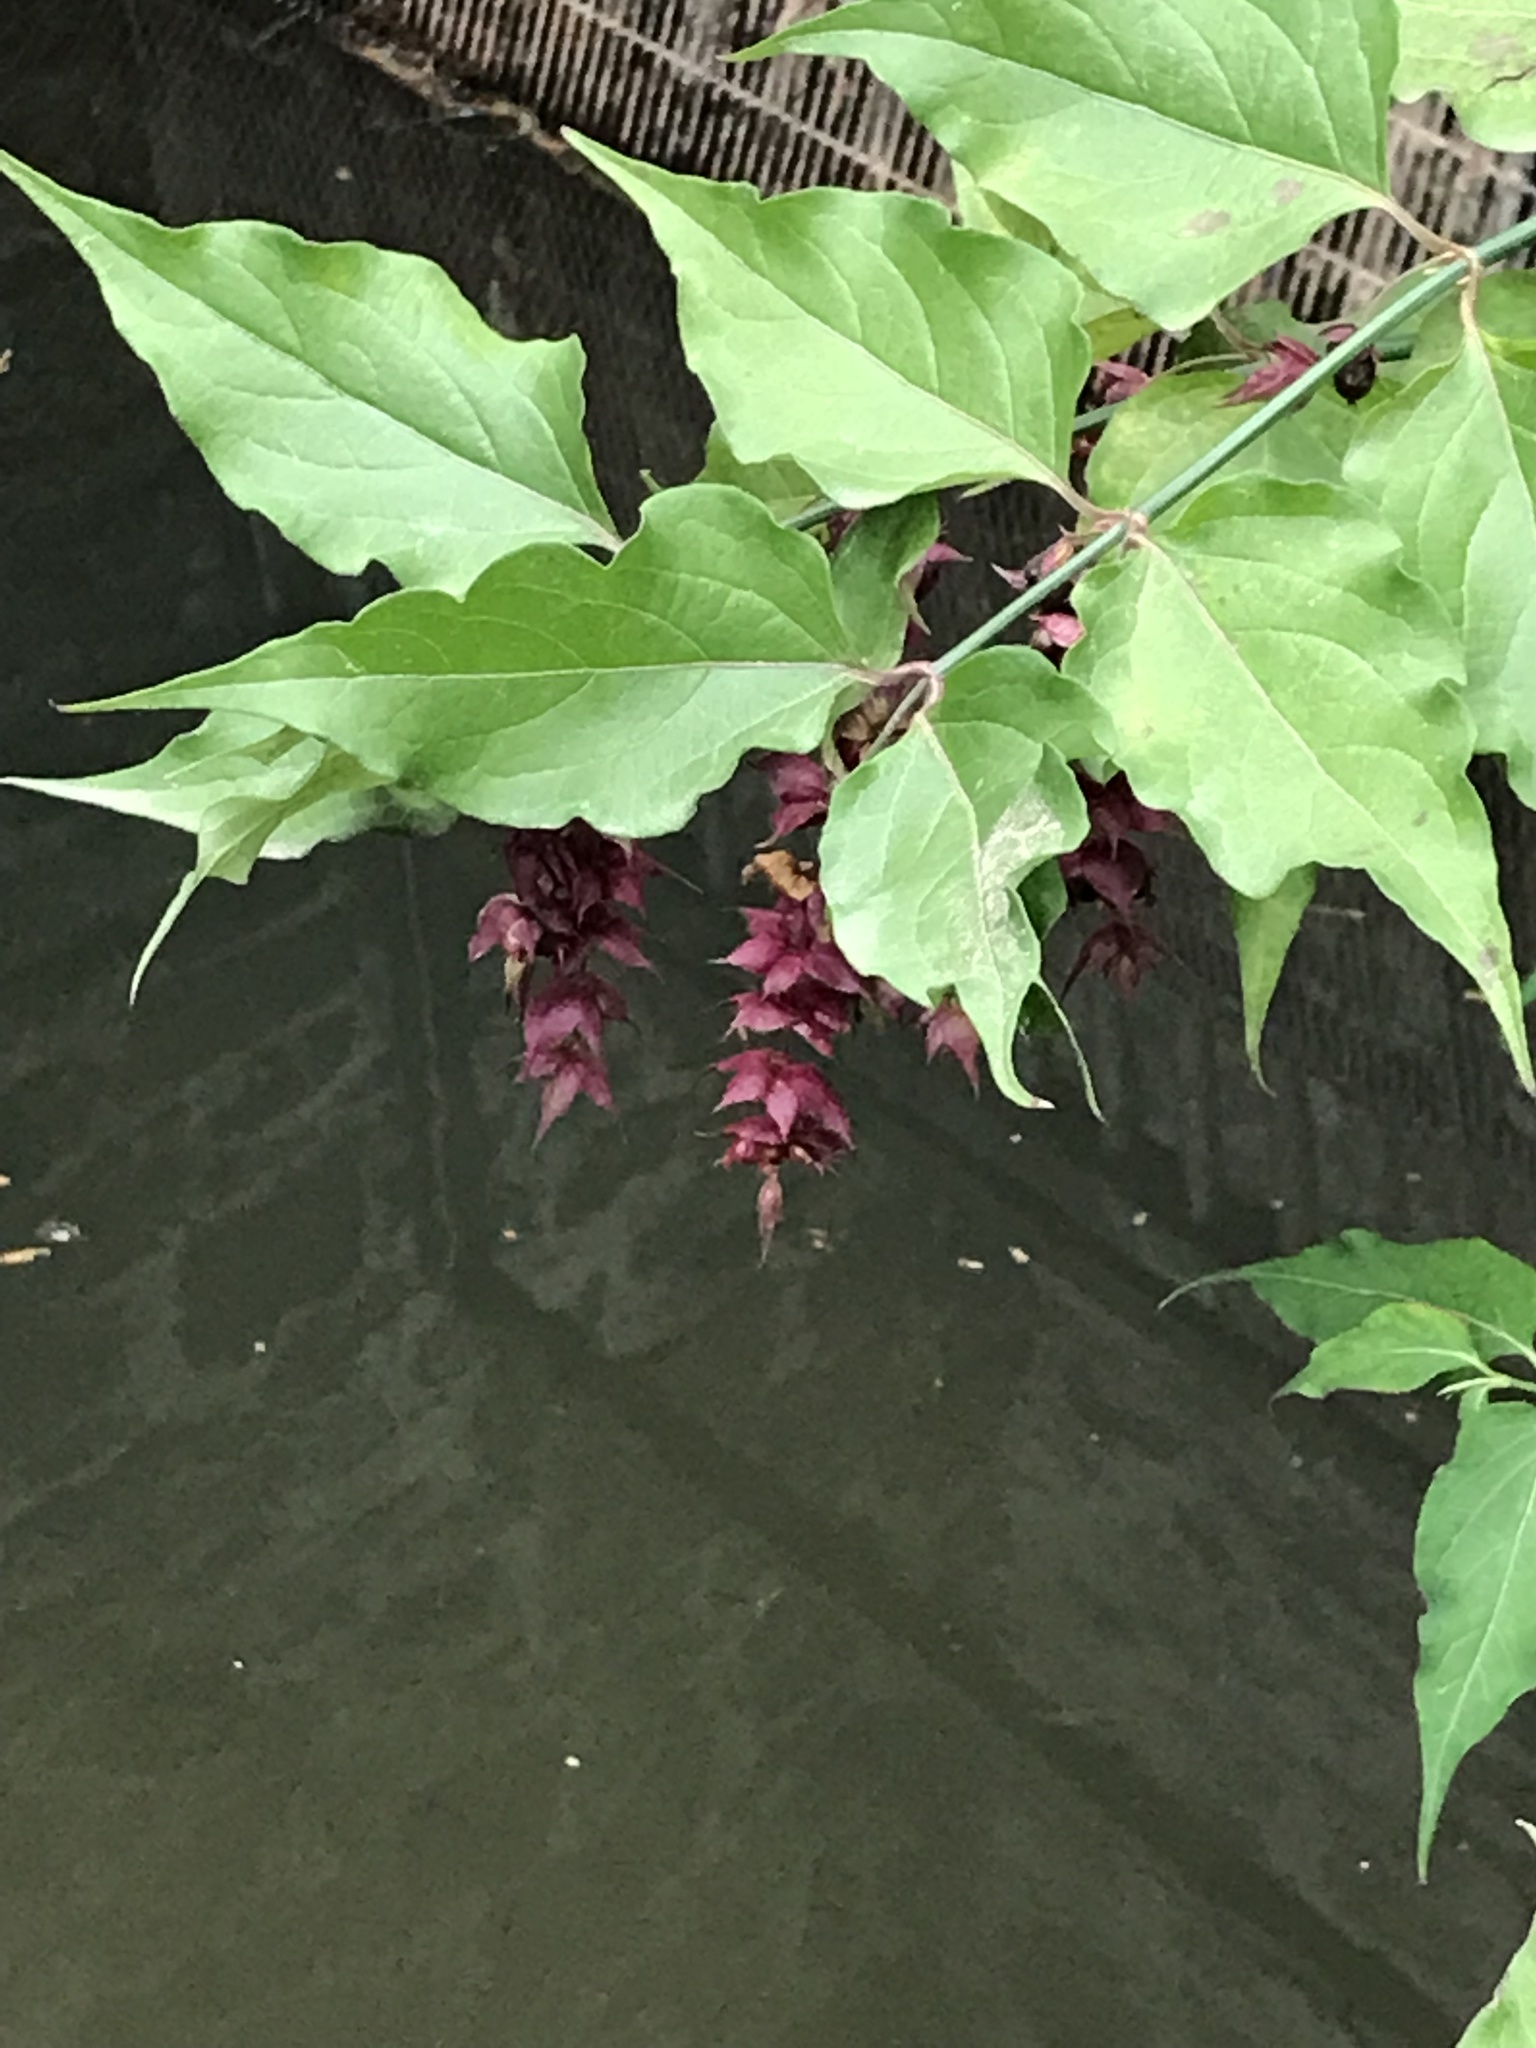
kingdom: Plantae
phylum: Tracheophyta
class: Magnoliopsida
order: Dipsacales
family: Caprifoliaceae
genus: Leycesteria
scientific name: Leycesteria formosa
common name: Himalayan honeysuckle
